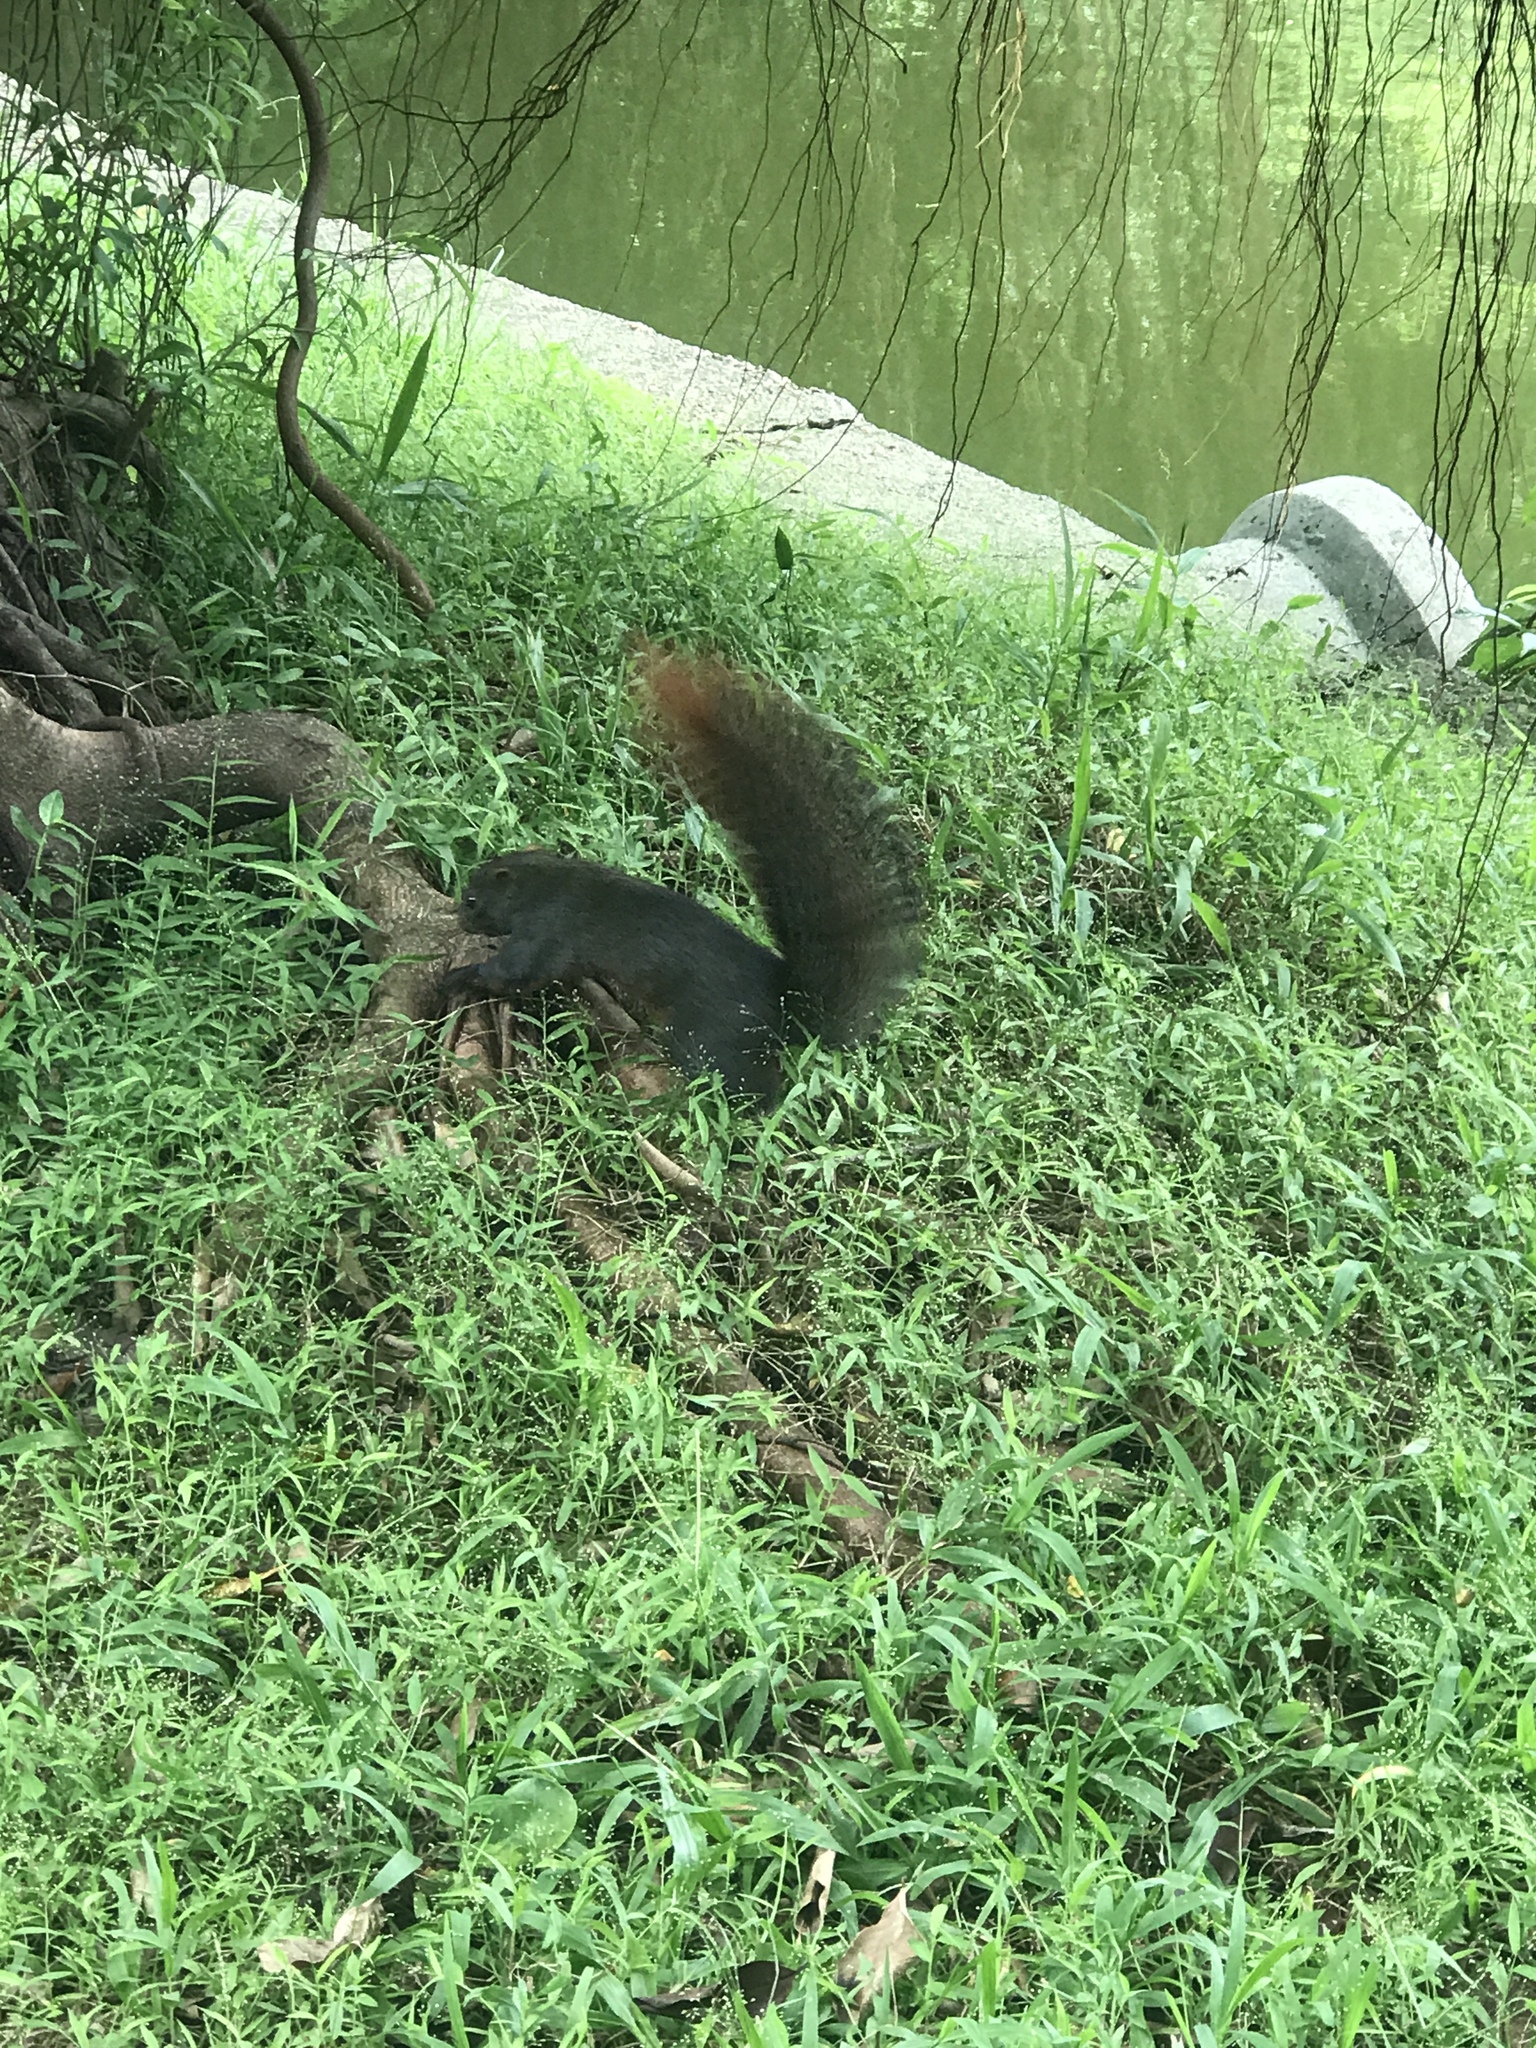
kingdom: Animalia
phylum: Chordata
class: Mammalia
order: Rodentia
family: Sciuridae
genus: Callosciurus
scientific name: Callosciurus erythraeus
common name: Pallas's squirrel
